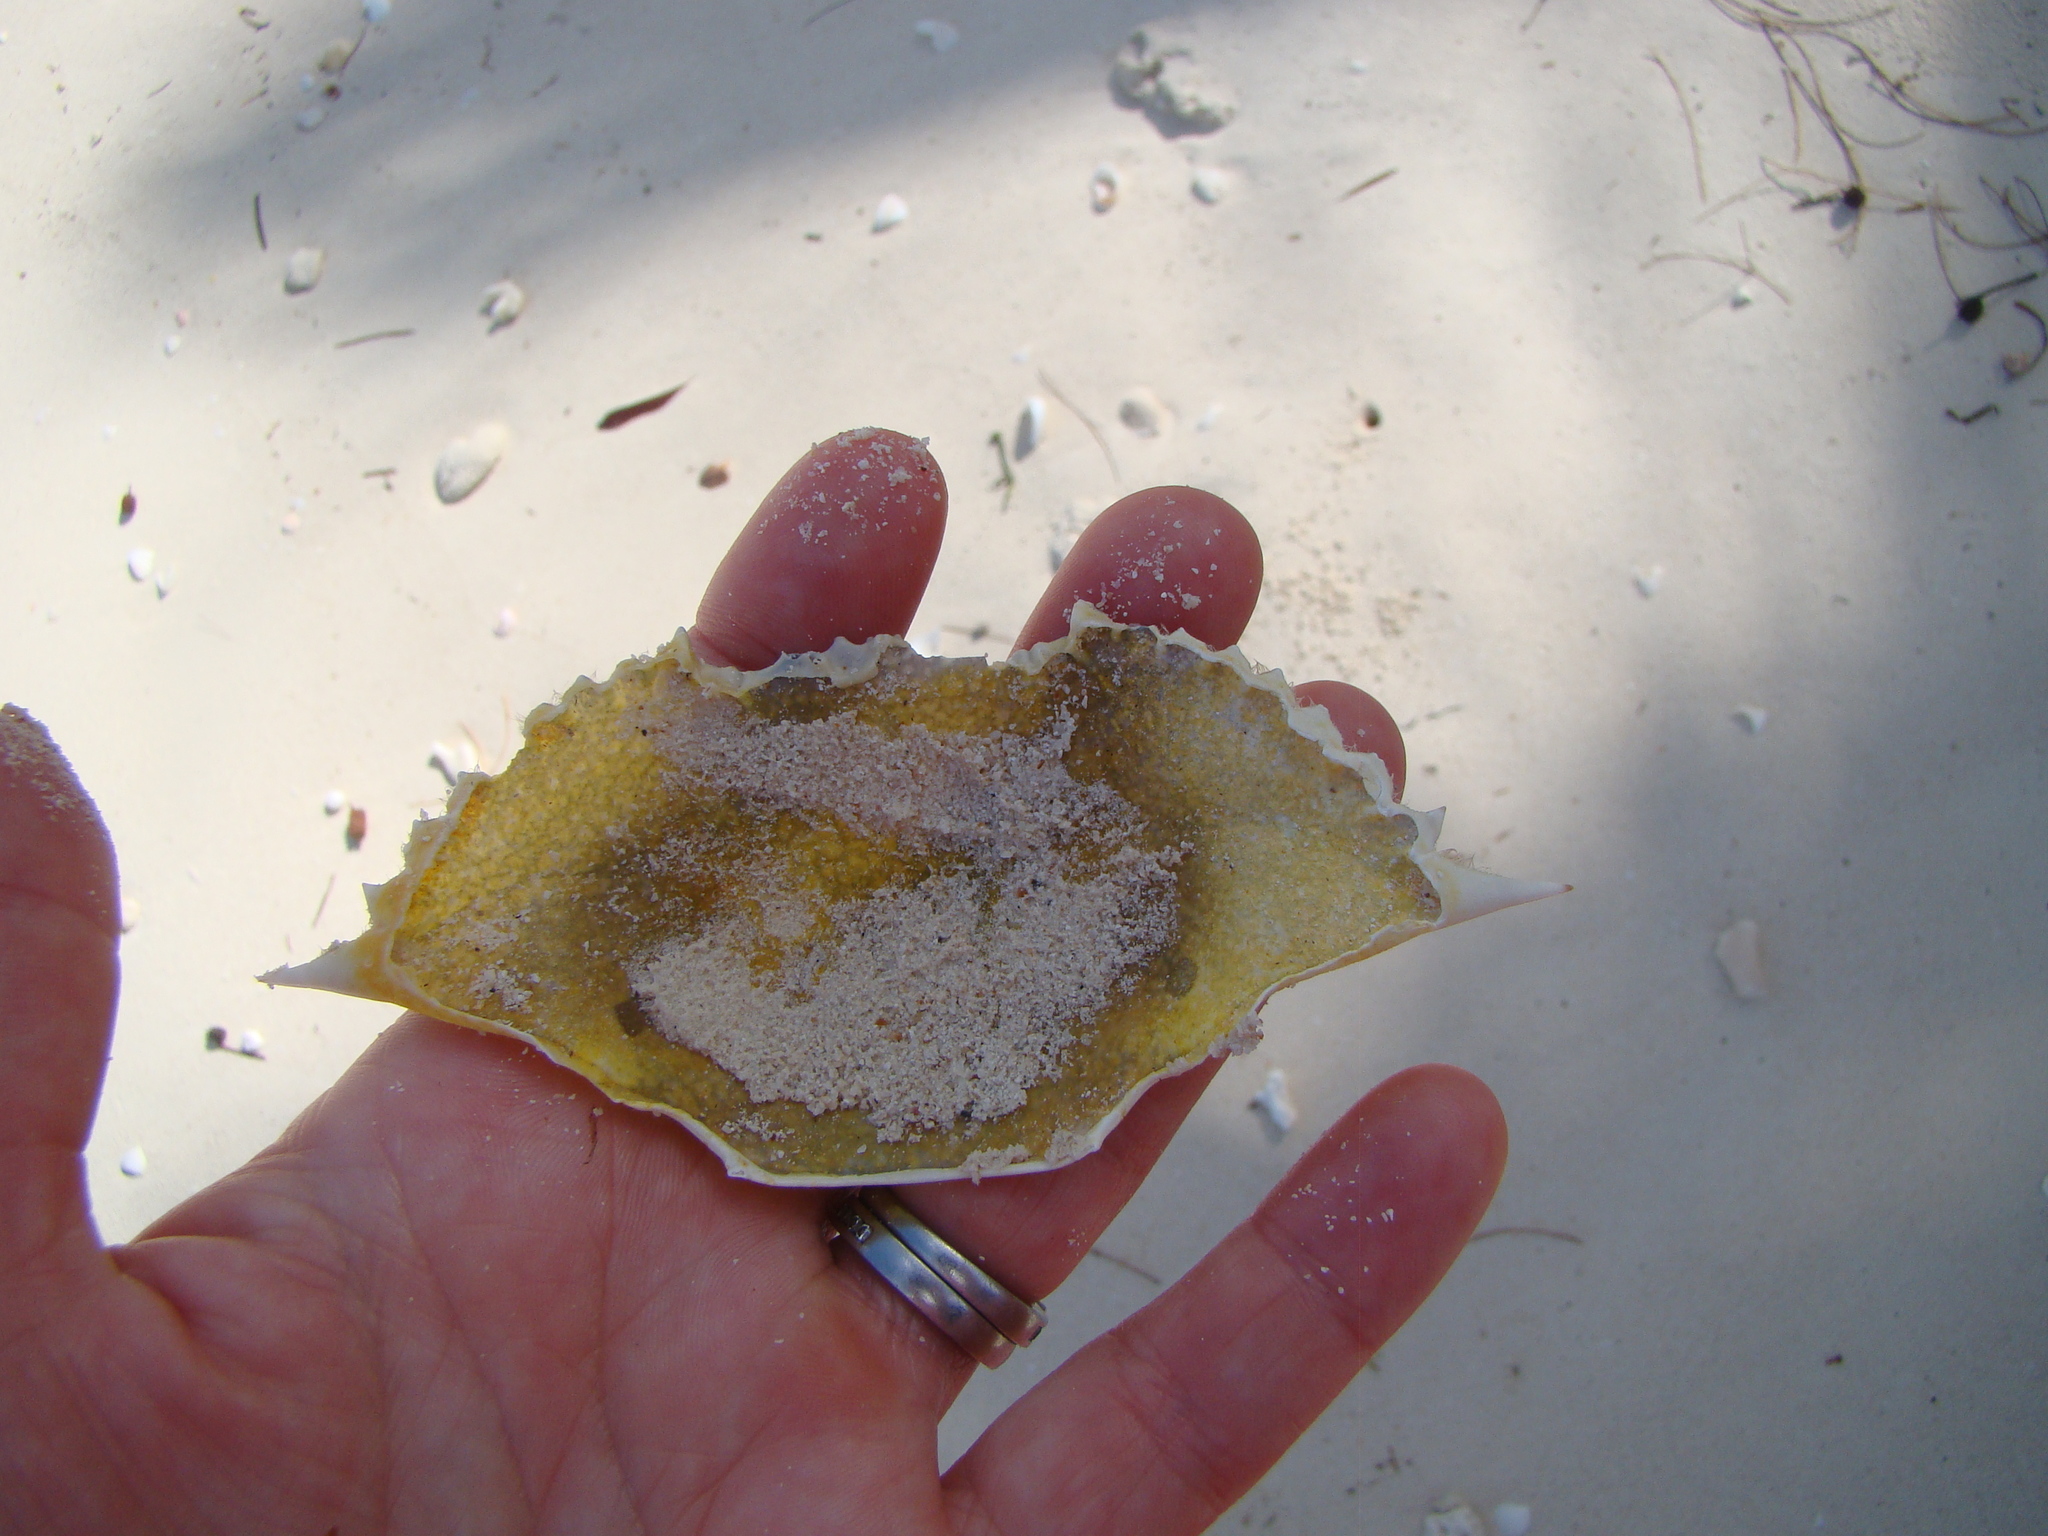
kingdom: Animalia
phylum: Arthropoda
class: Malacostraca
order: Decapoda
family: Portunidae
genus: Portunus
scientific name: Portunus sanguinolentus
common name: Blood-spotted swimming crab
